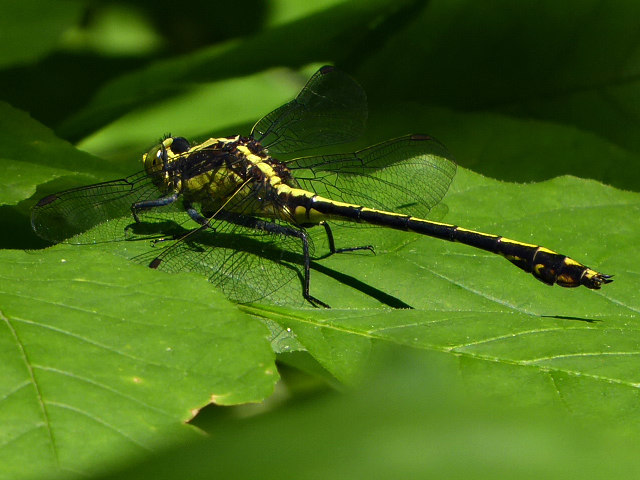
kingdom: Animalia
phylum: Arthropoda
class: Insecta
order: Odonata
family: Gomphidae
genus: Dromogomphus
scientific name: Dromogomphus spinosus
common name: Black-shouldered spinyleg
